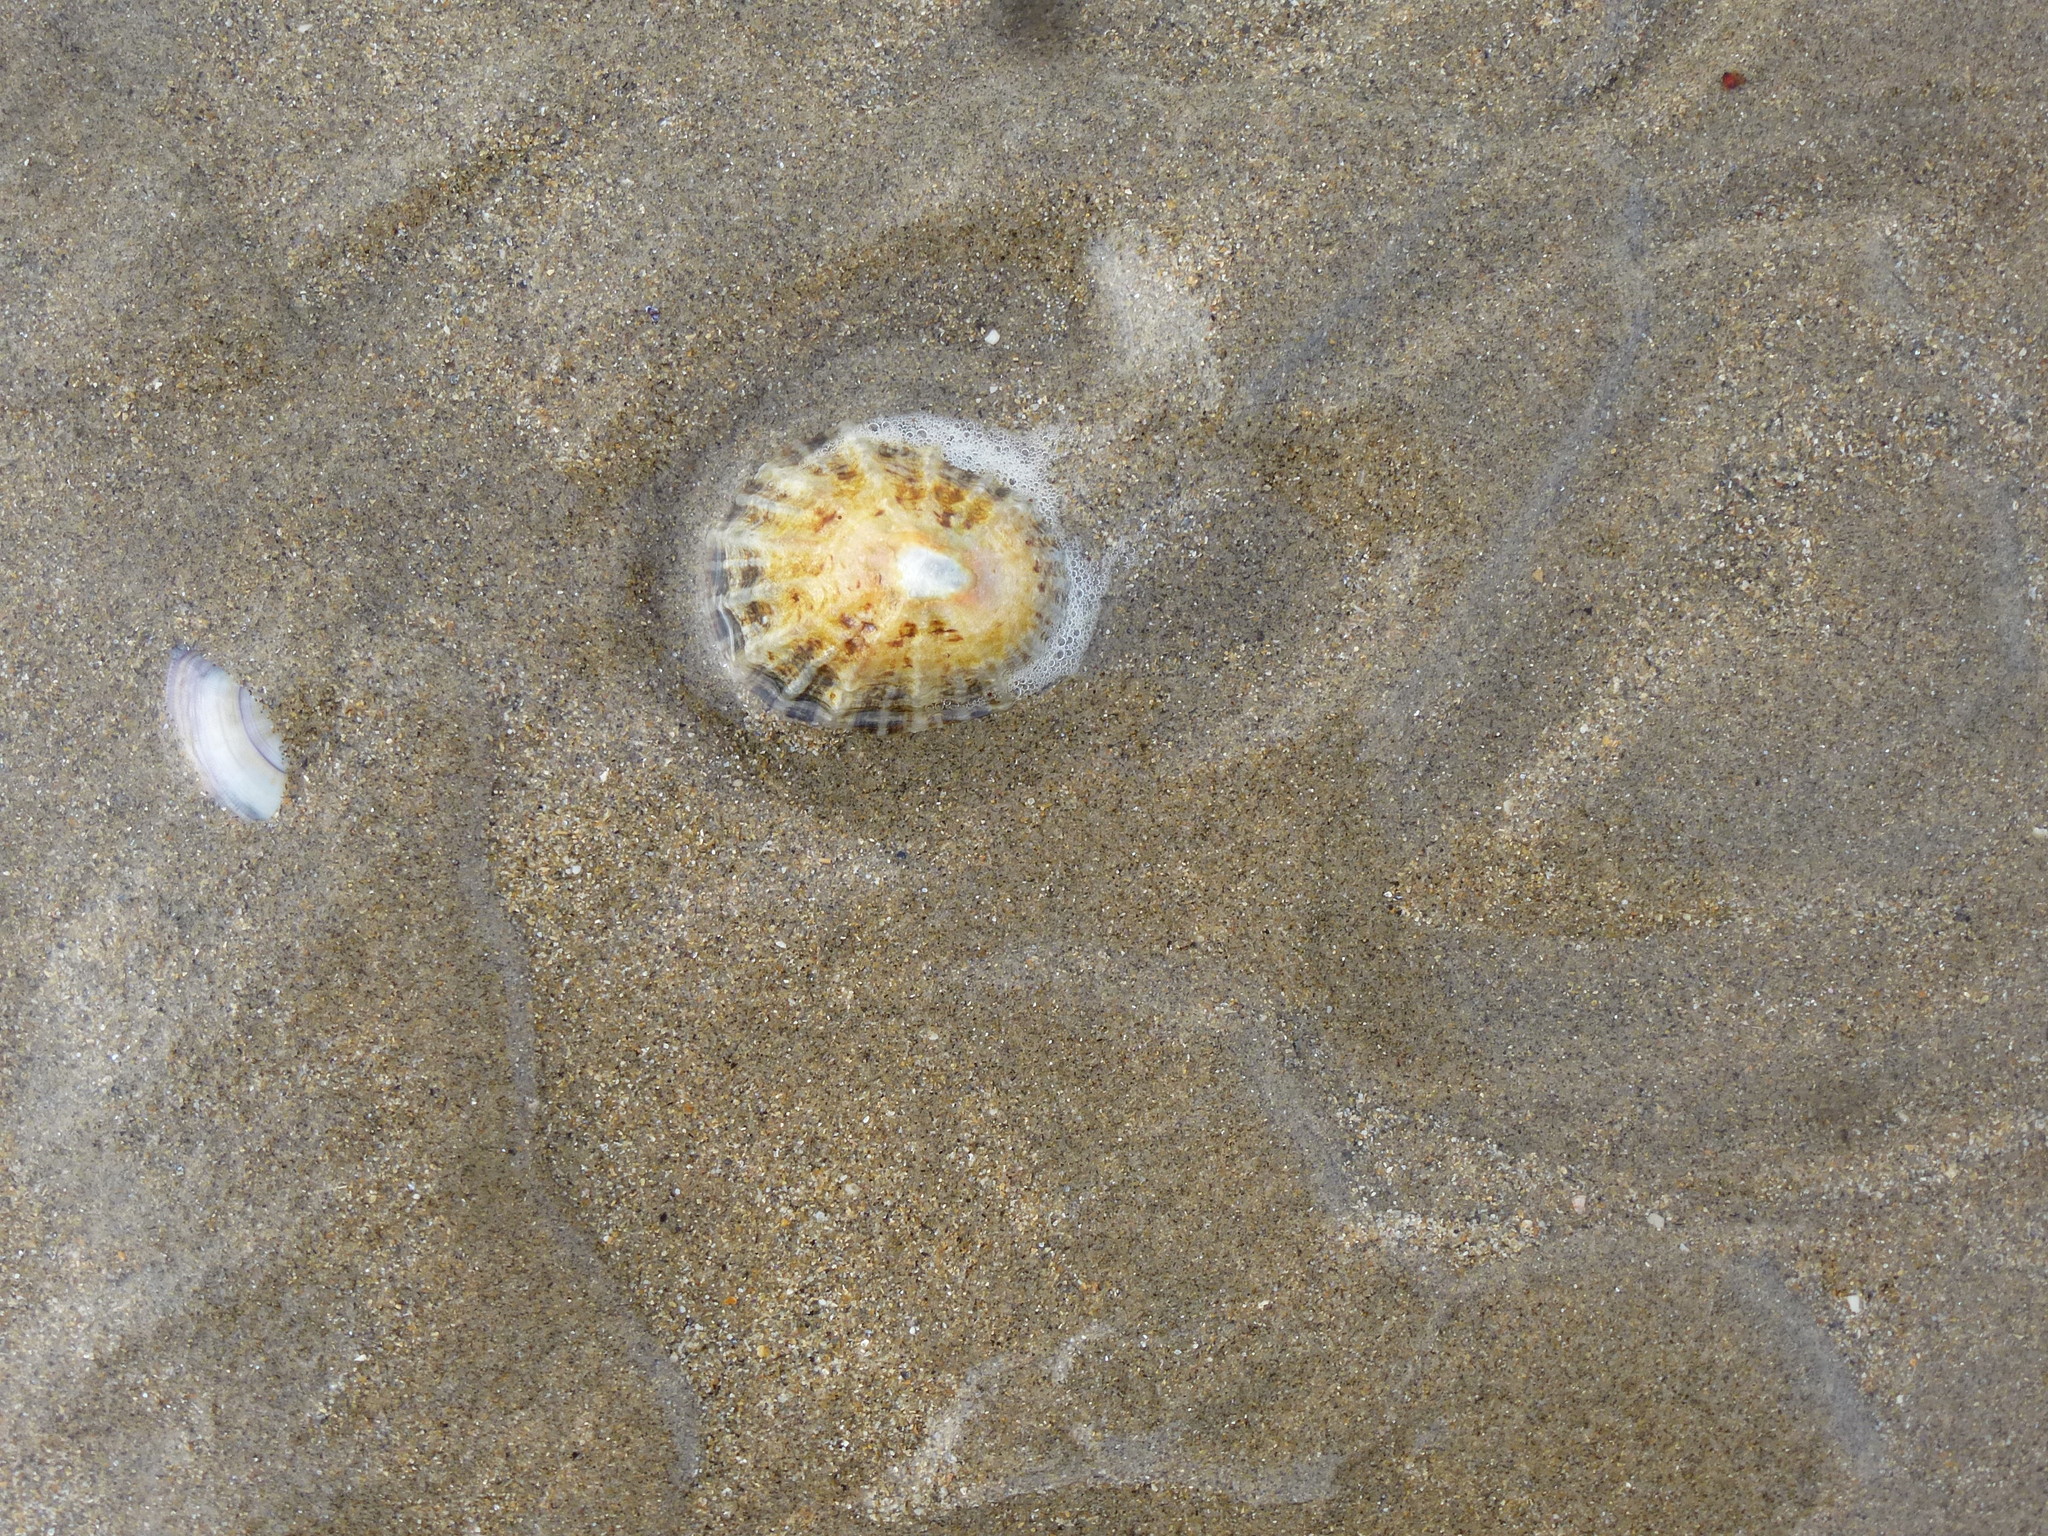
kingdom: Animalia
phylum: Mollusca
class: Gastropoda
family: Patellidae
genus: Patella
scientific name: Patella vulgata
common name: Common limpet
